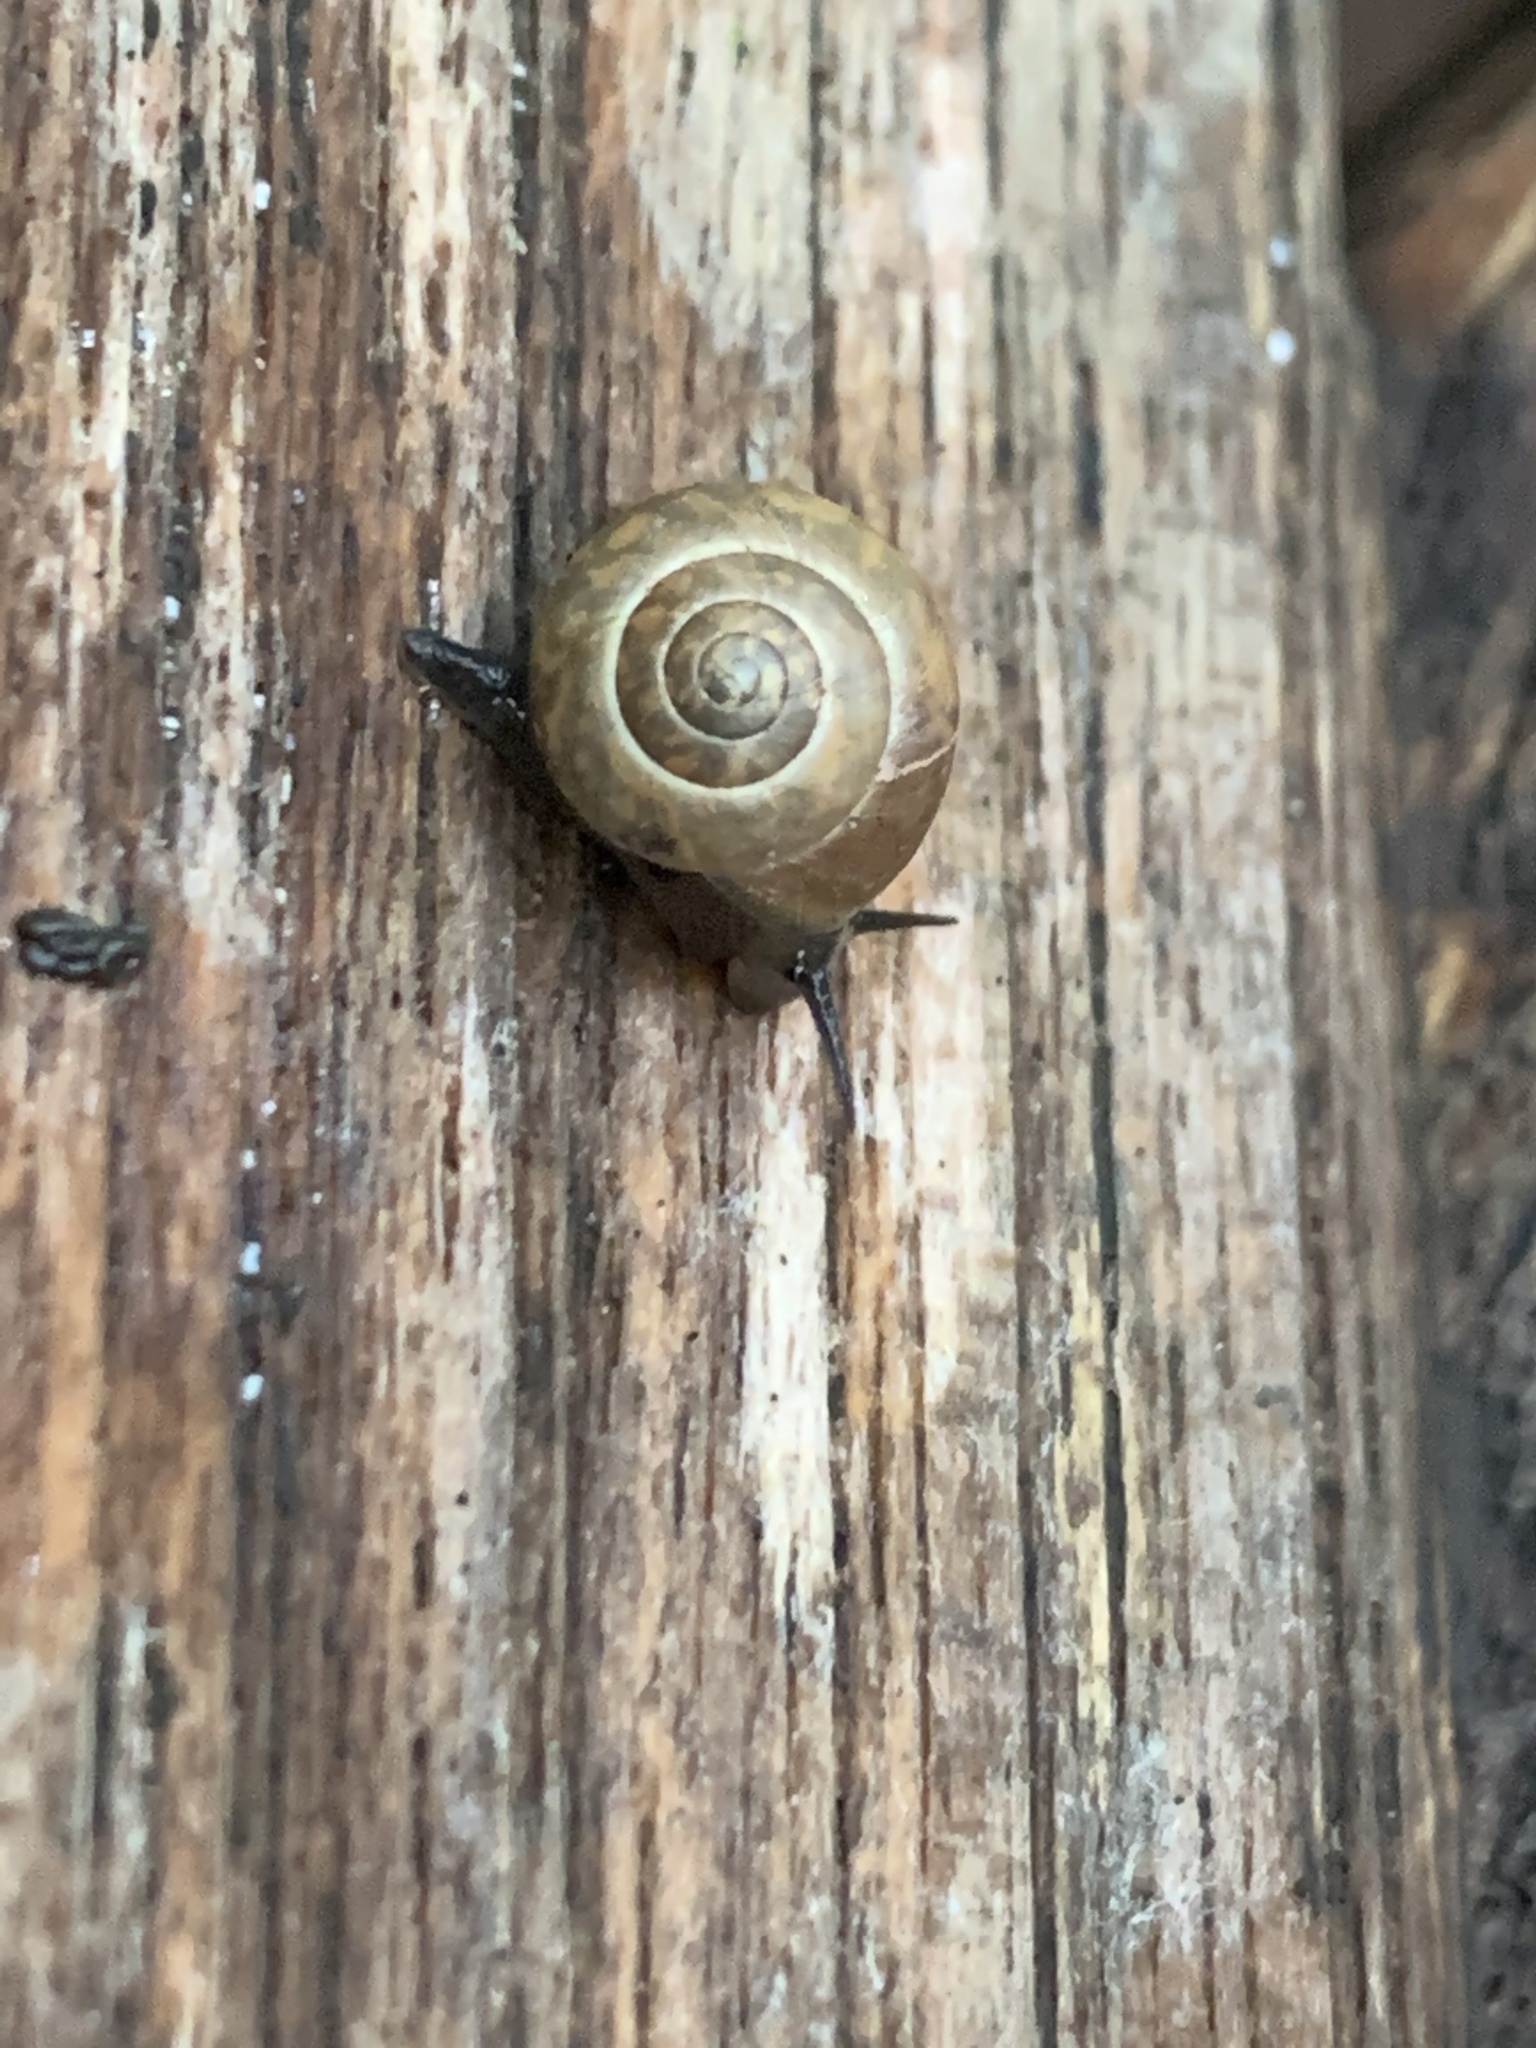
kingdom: Animalia
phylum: Mollusca
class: Gastropoda
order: Cycloneritida
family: Helicinidae
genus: Helicina
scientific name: Helicina orbiculata
